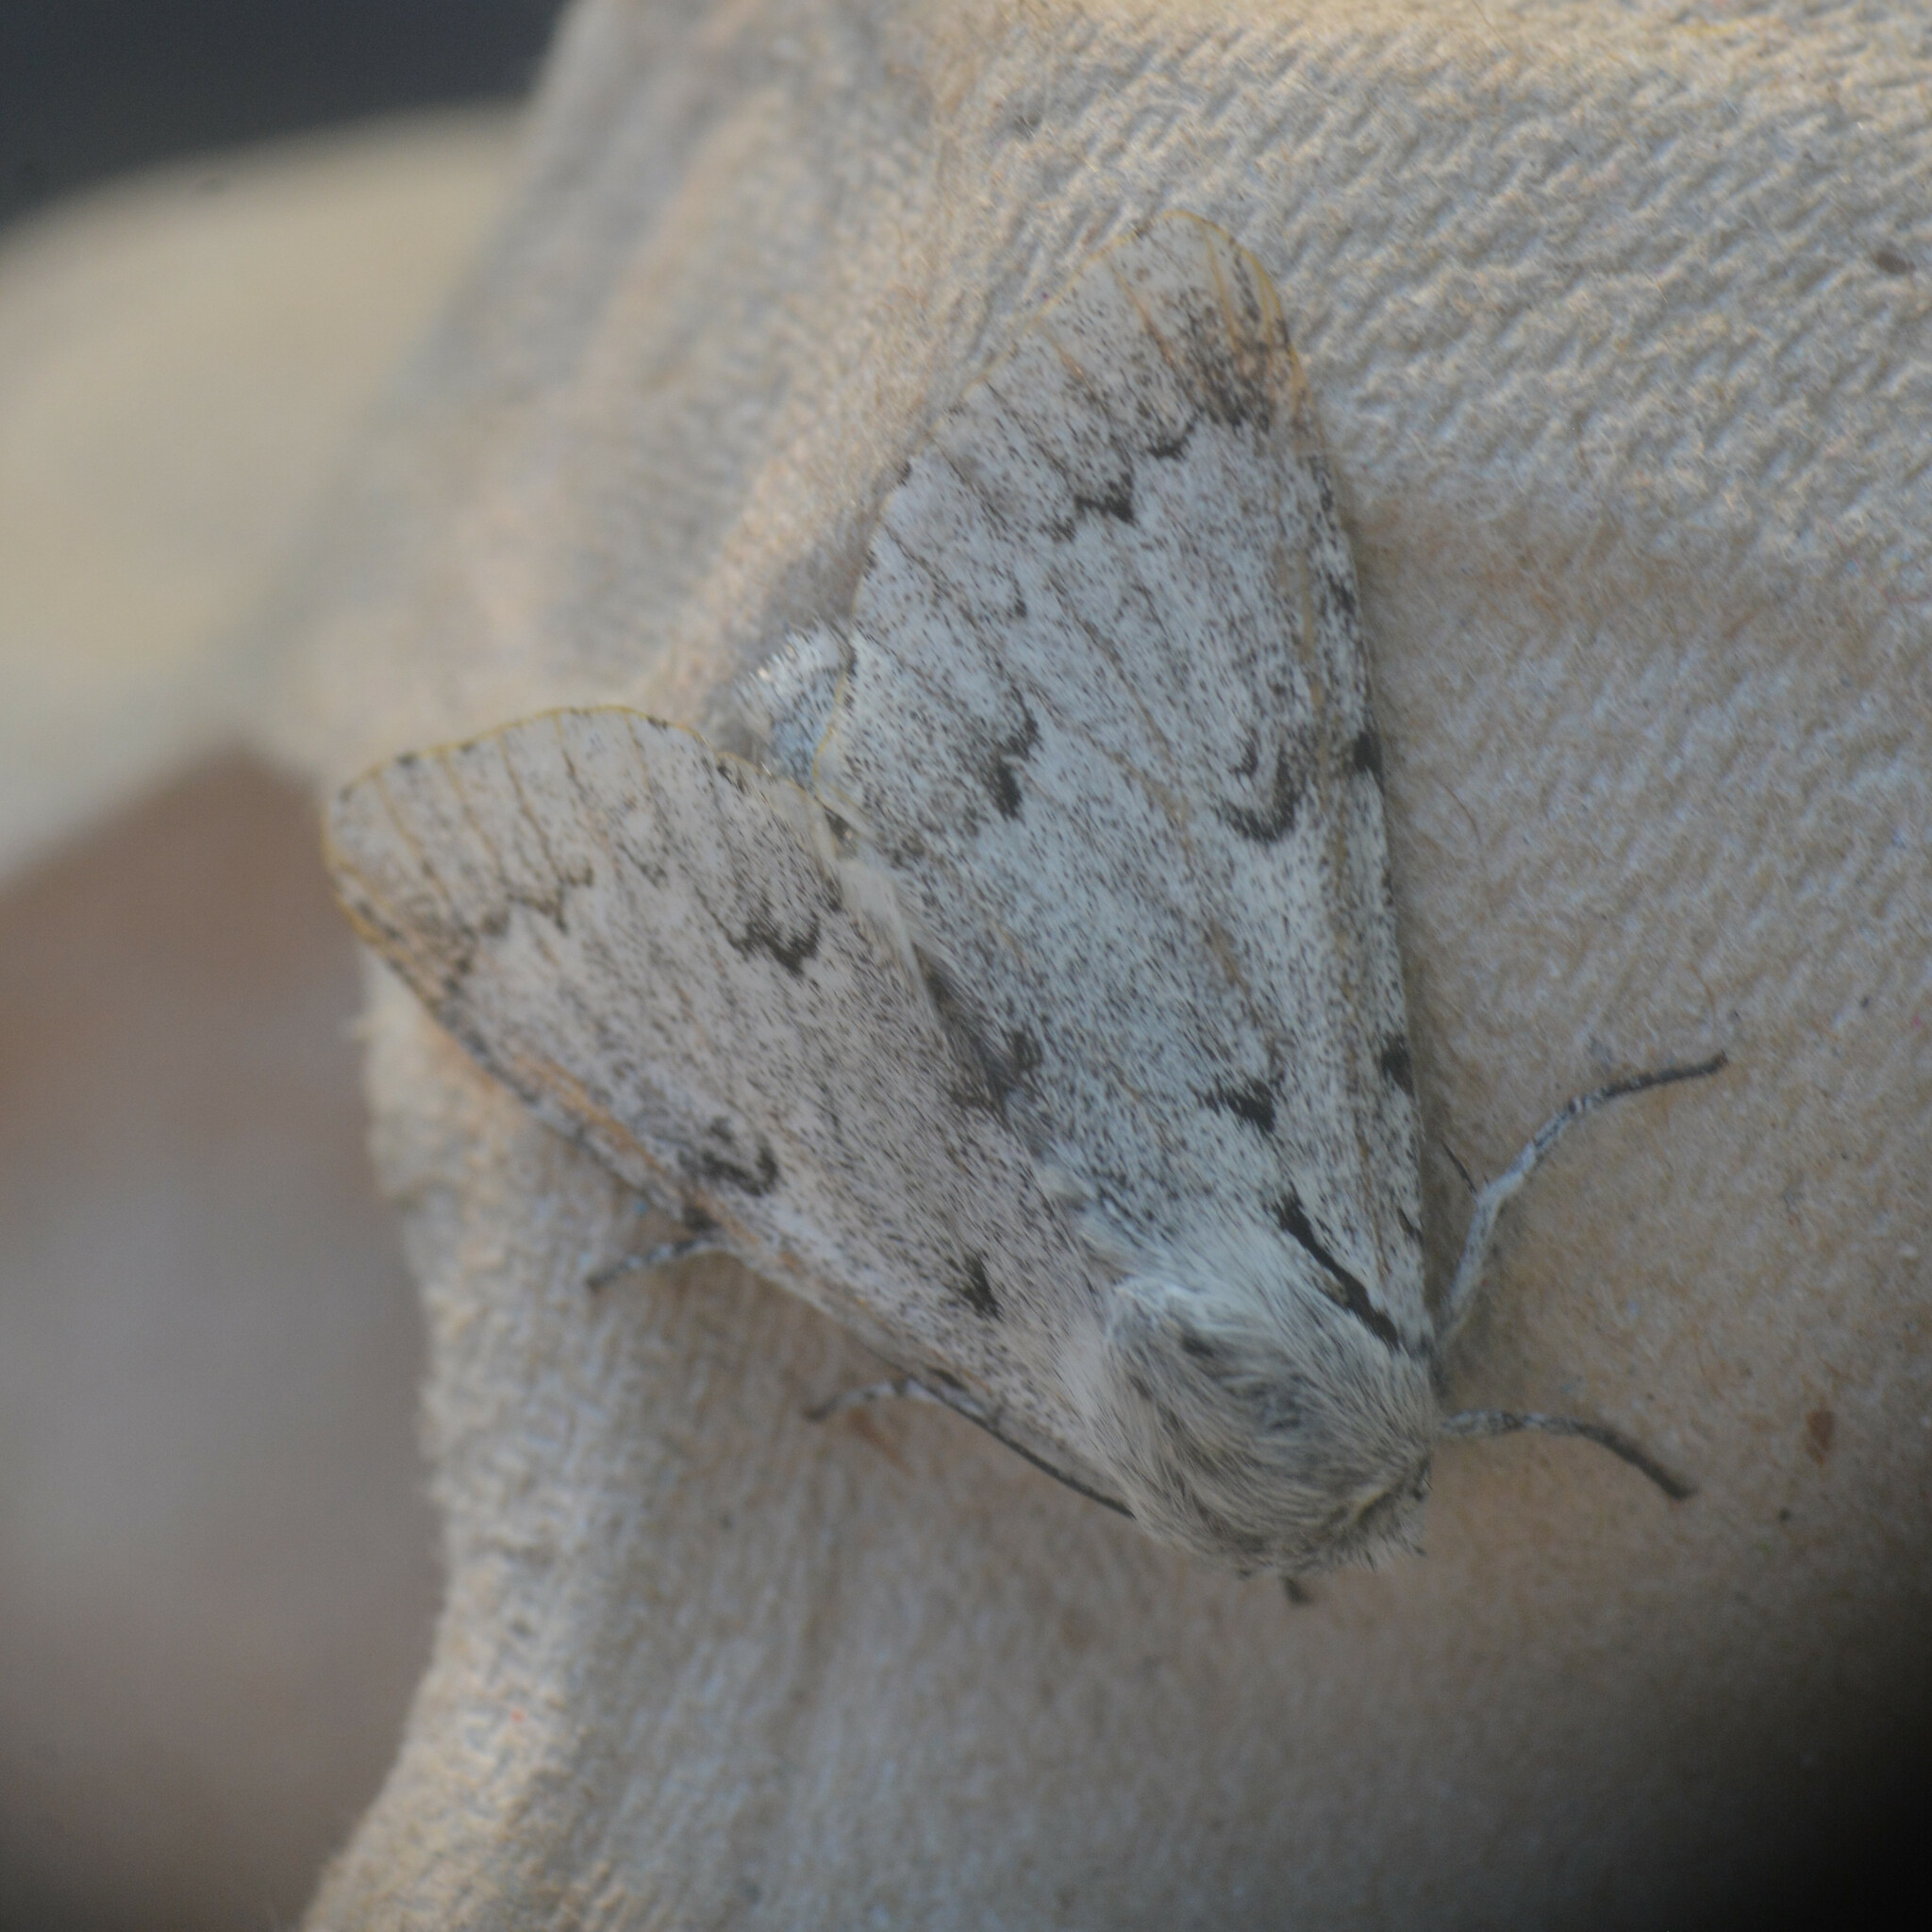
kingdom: Animalia
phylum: Arthropoda
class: Insecta
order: Lepidoptera
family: Noctuidae
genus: Acronicta
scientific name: Acronicta leporina
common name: Miller
